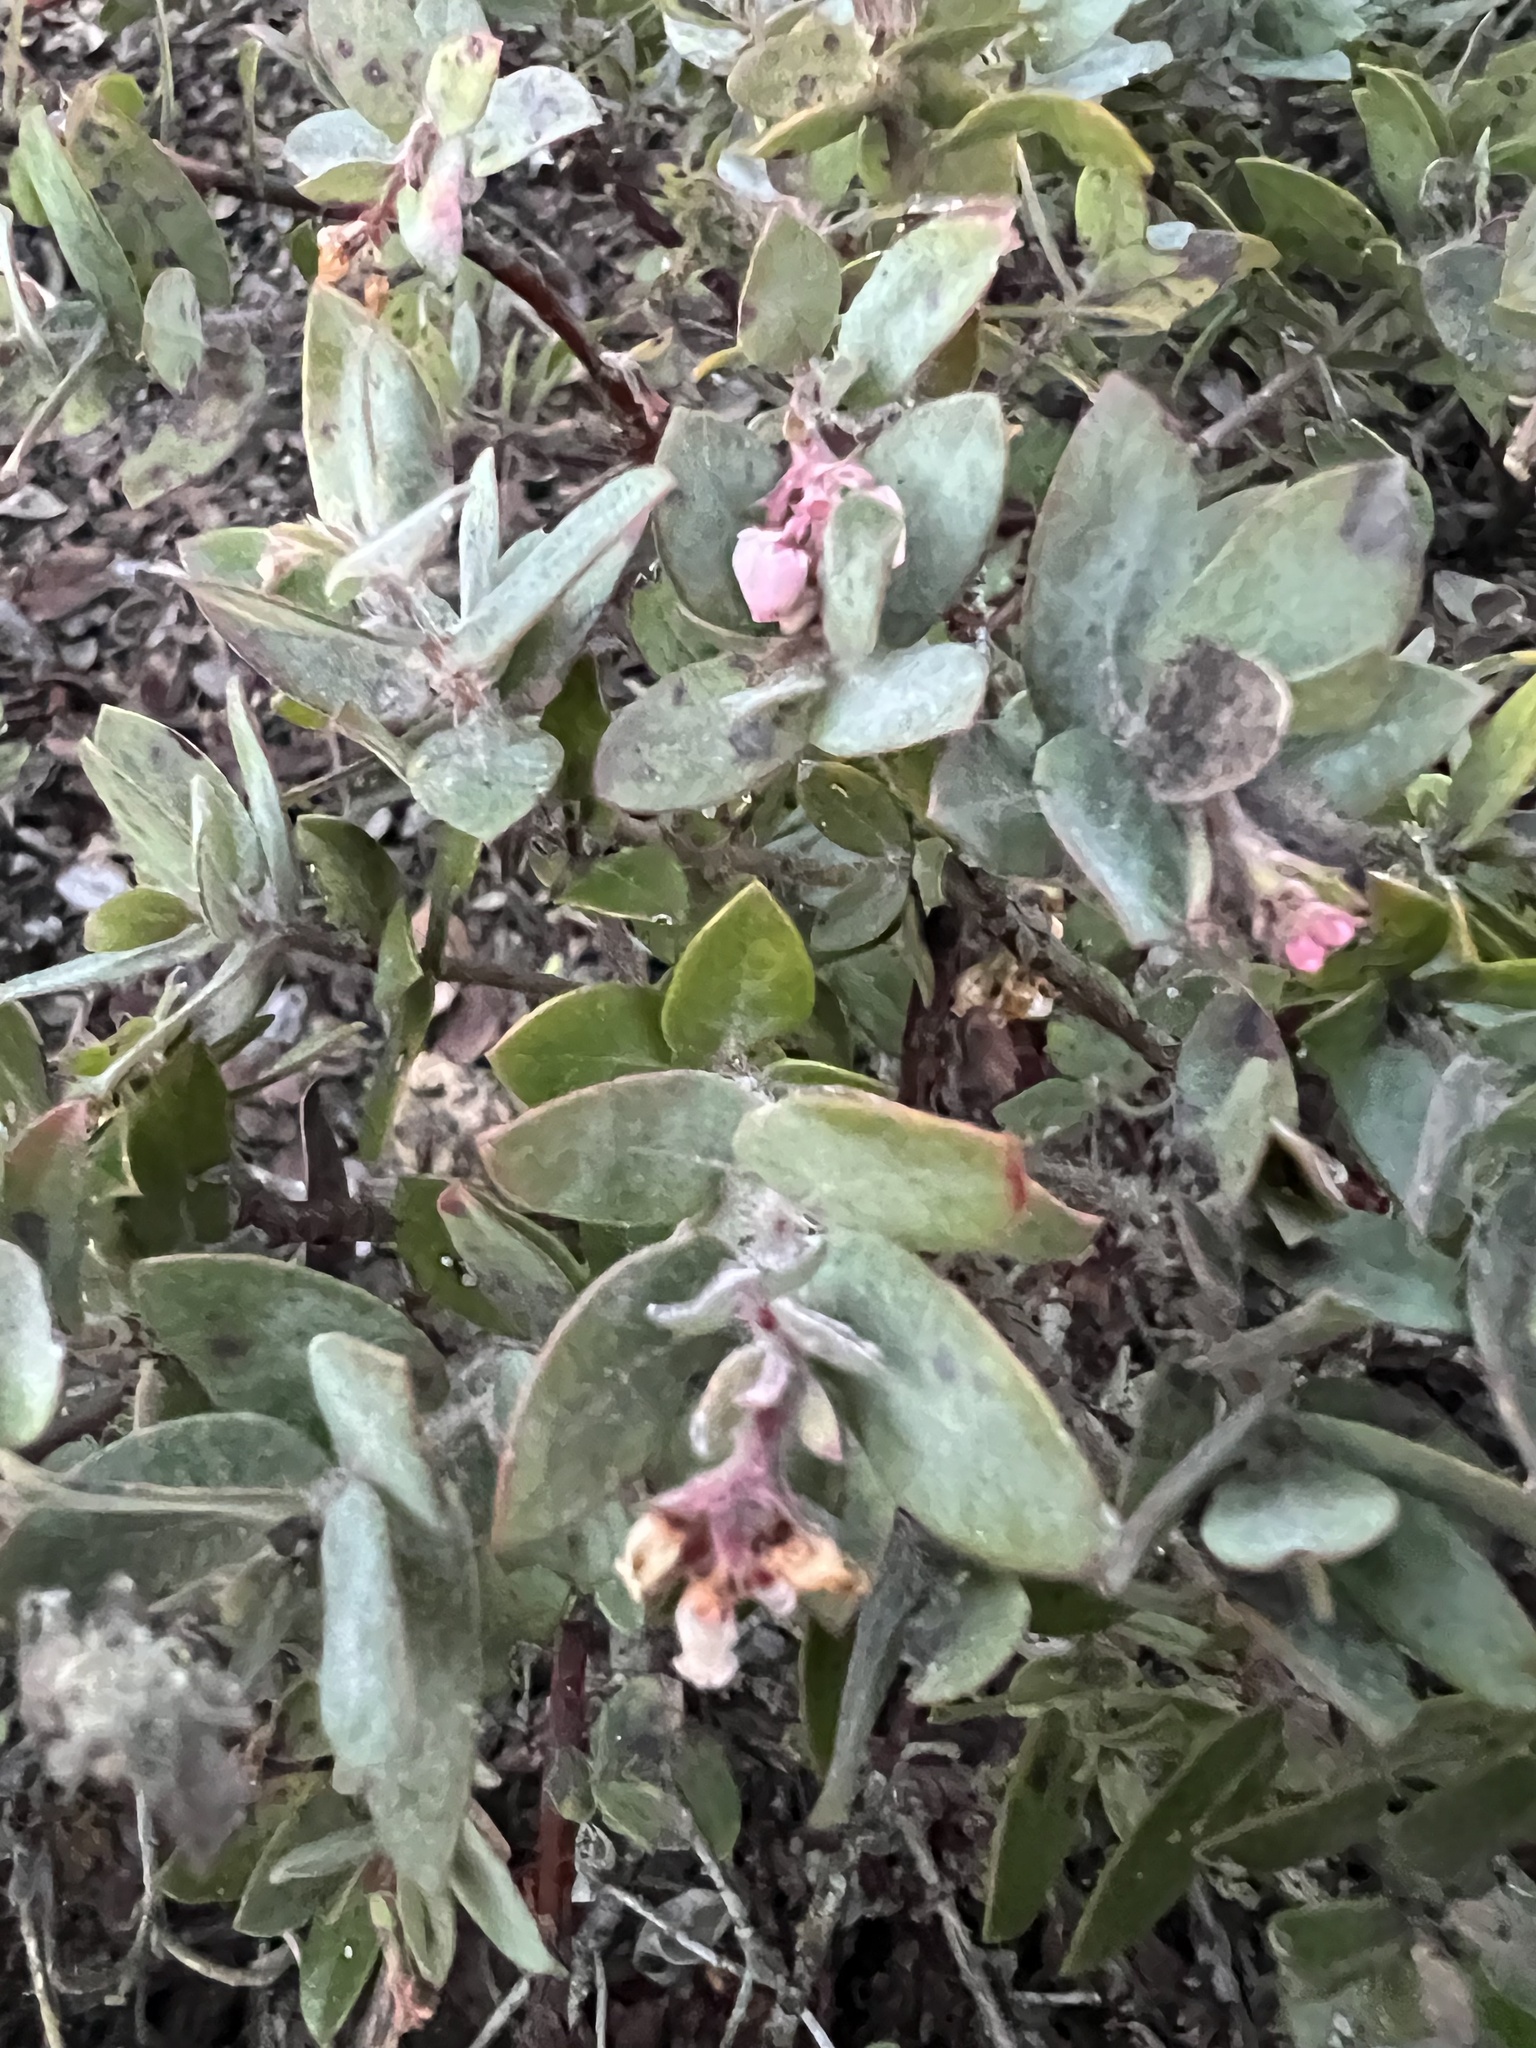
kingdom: Plantae
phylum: Tracheophyta
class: Magnoliopsida
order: Ericales
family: Ericaceae
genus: Arctostaphylos
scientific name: Arctostaphylos pajaroensis
